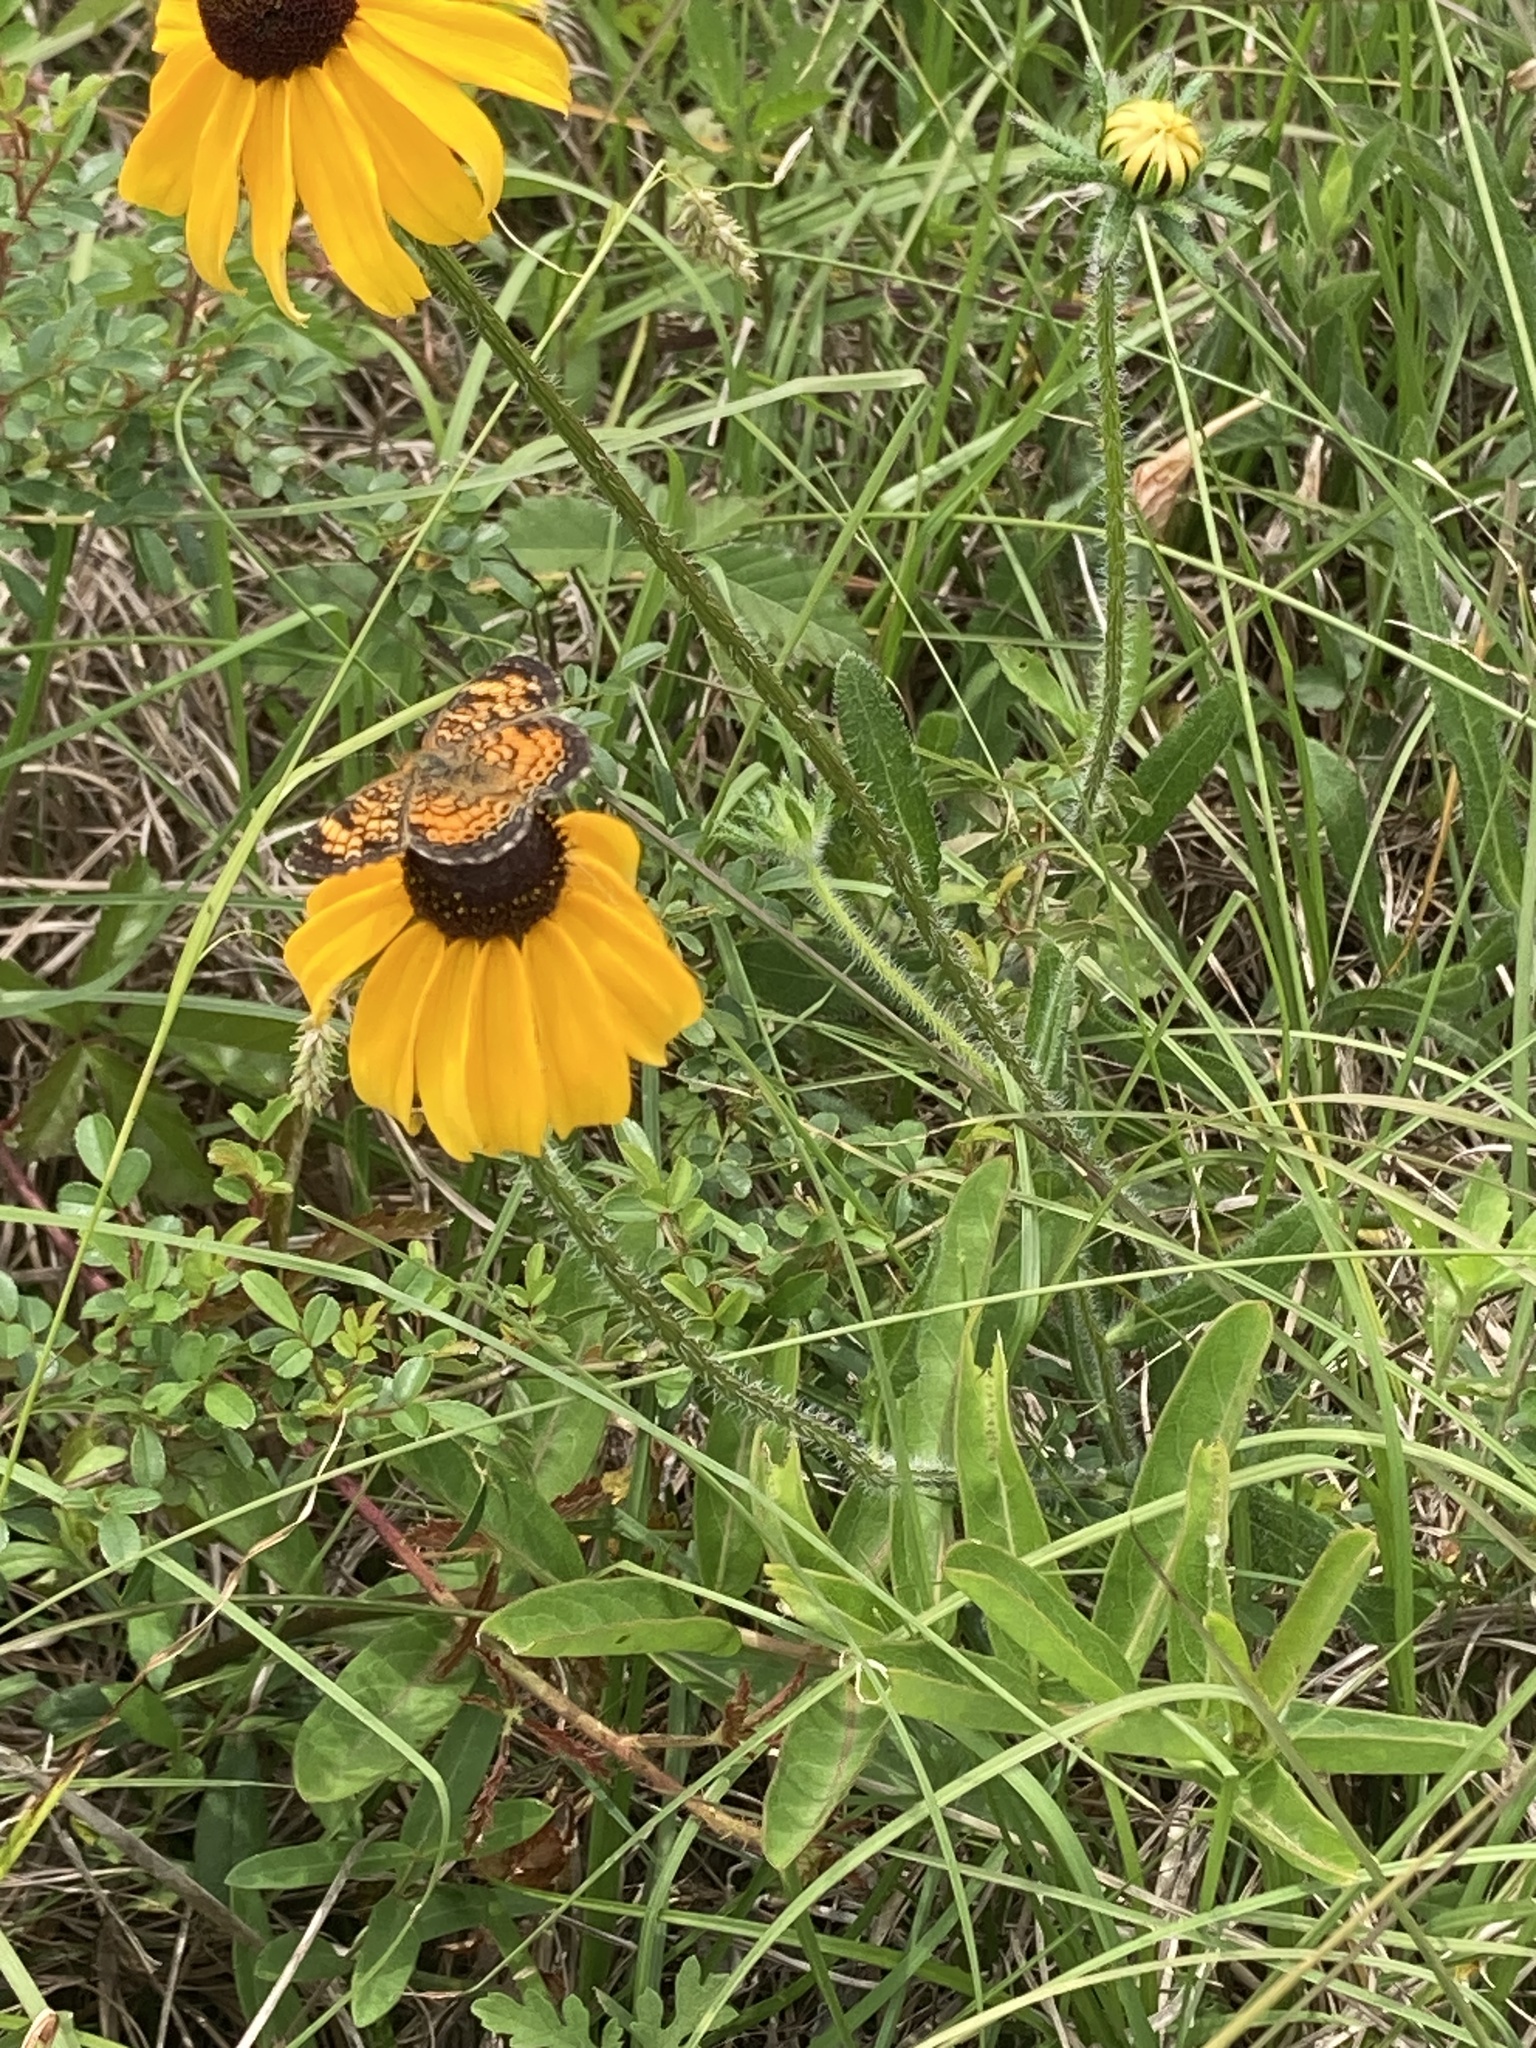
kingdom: Plantae
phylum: Tracheophyta
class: Magnoliopsida
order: Asterales
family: Asteraceae
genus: Rudbeckia
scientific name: Rudbeckia hirta
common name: Black-eyed-susan
